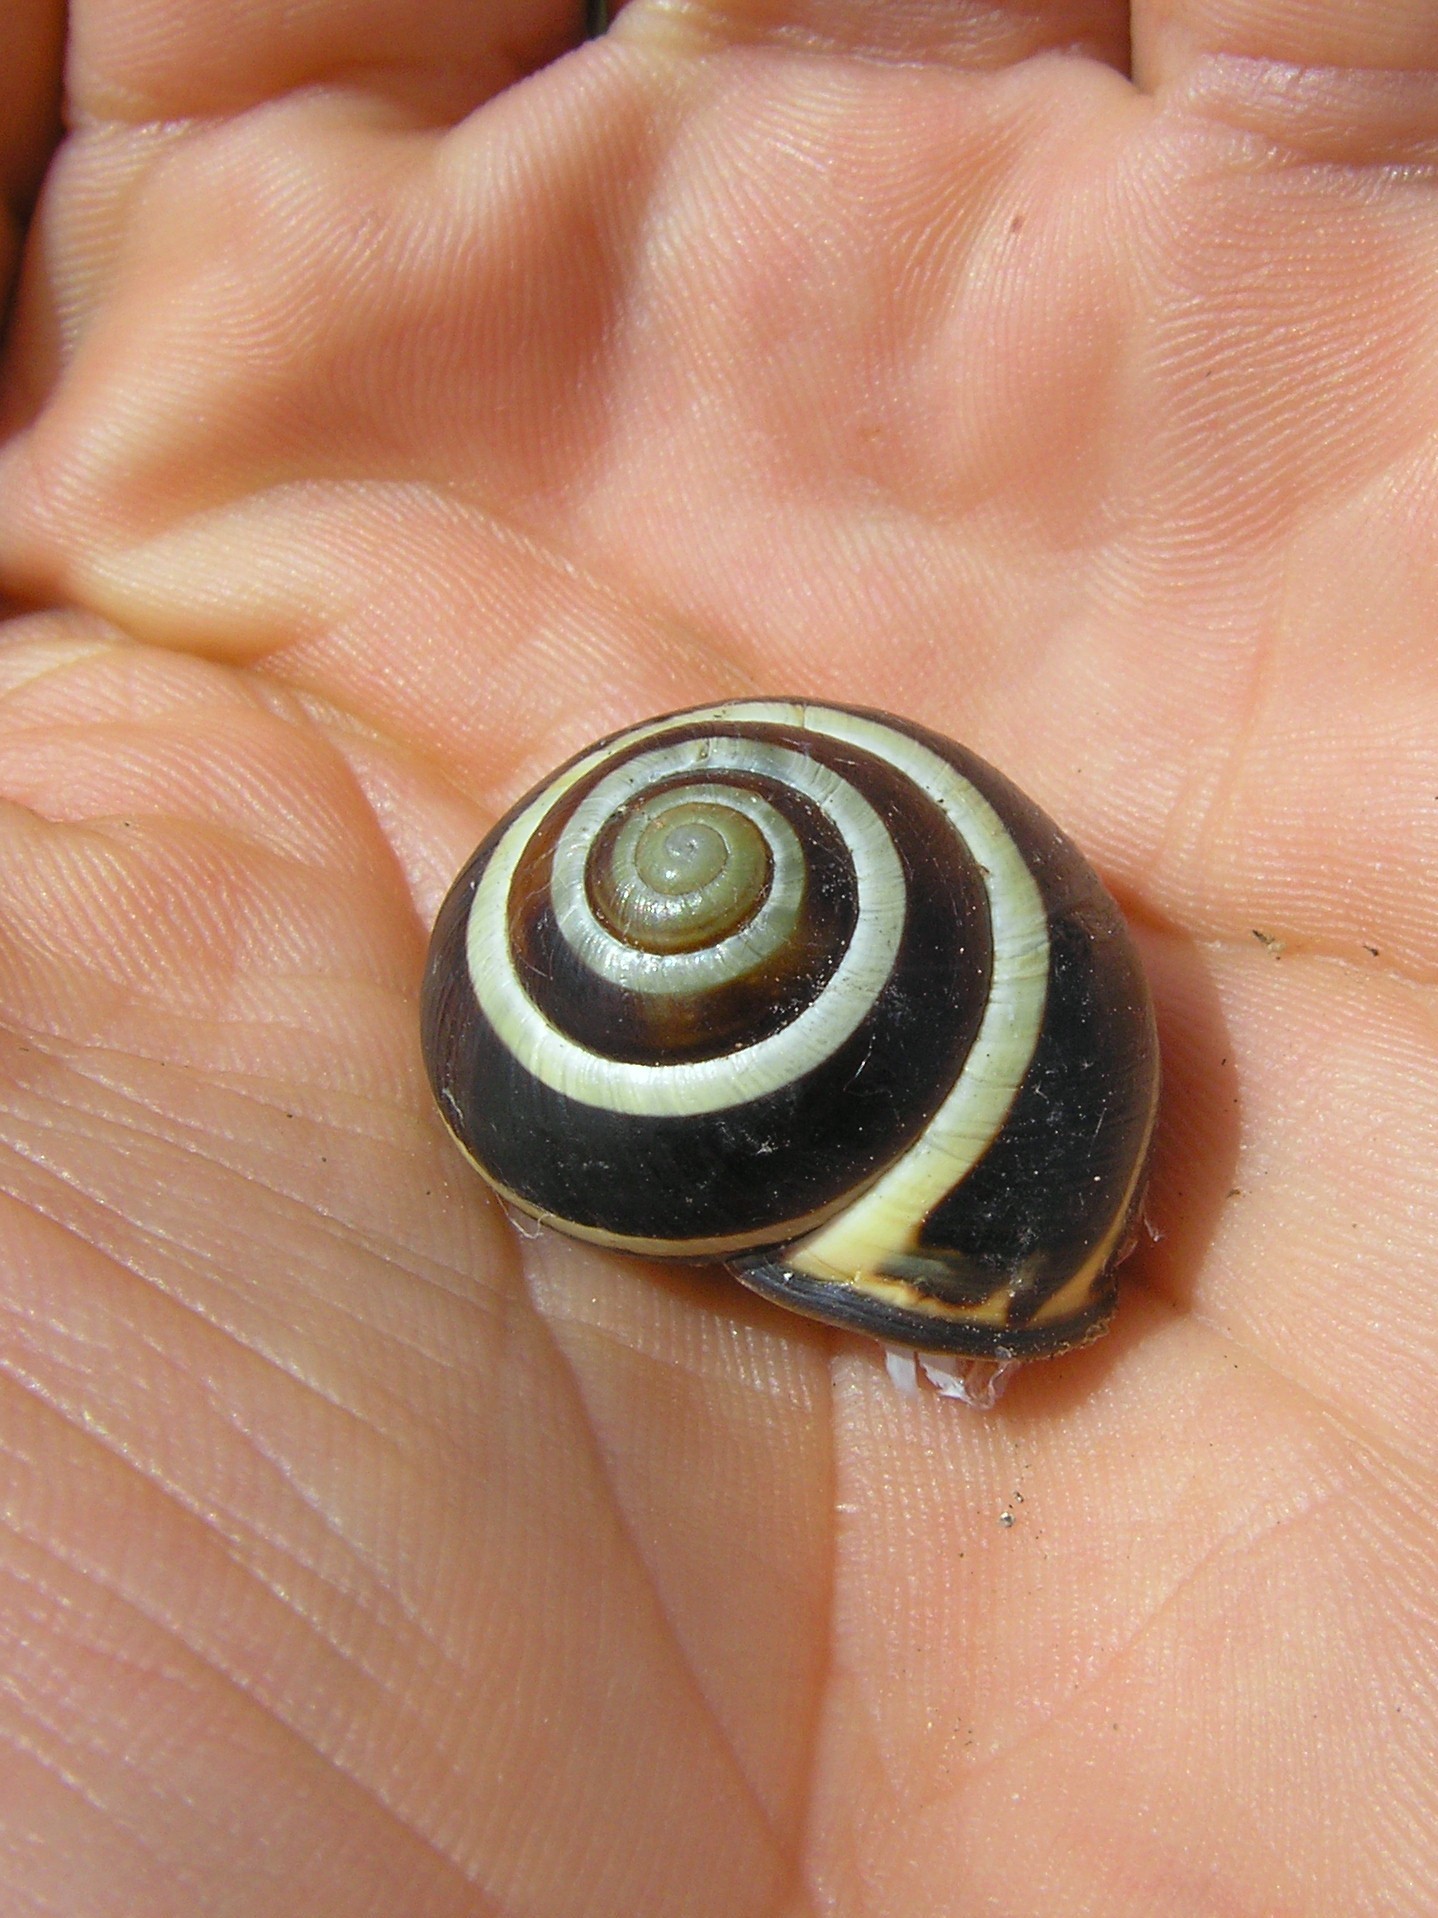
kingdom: Animalia
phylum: Mollusca
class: Gastropoda
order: Stylommatophora
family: Helicidae
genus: Cepaea
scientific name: Cepaea nemoralis
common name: Grovesnail
